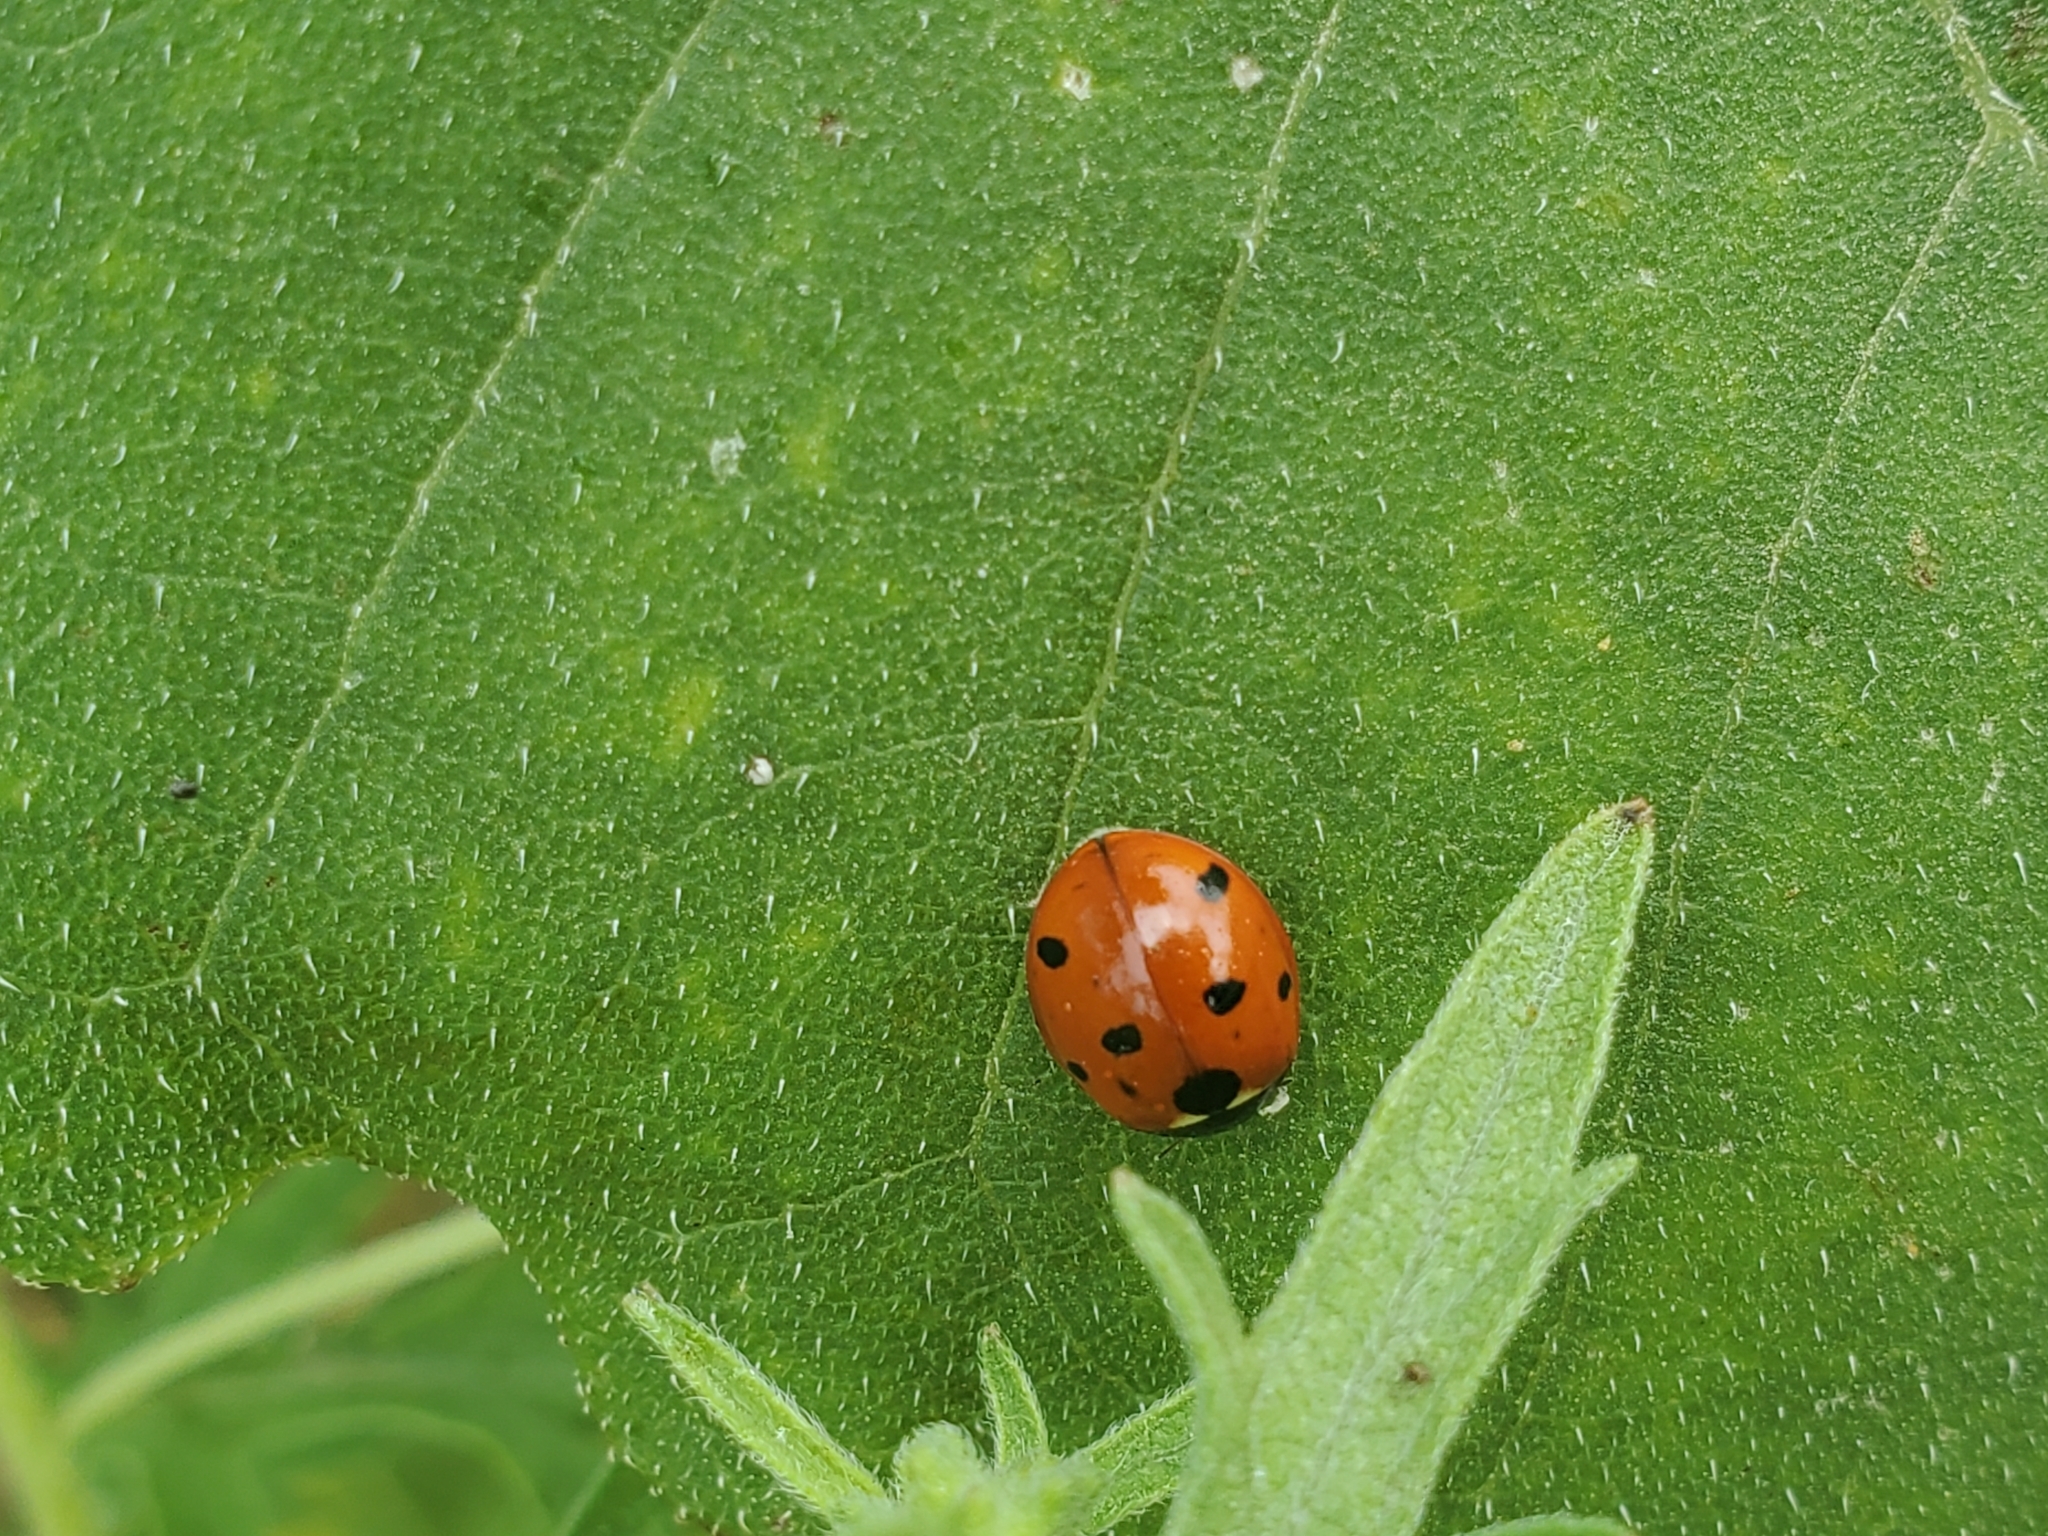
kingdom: Animalia
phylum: Arthropoda
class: Insecta
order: Coleoptera
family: Coccinellidae
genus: Coccinella
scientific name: Coccinella septempunctata
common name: Sevenspotted lady beetle
